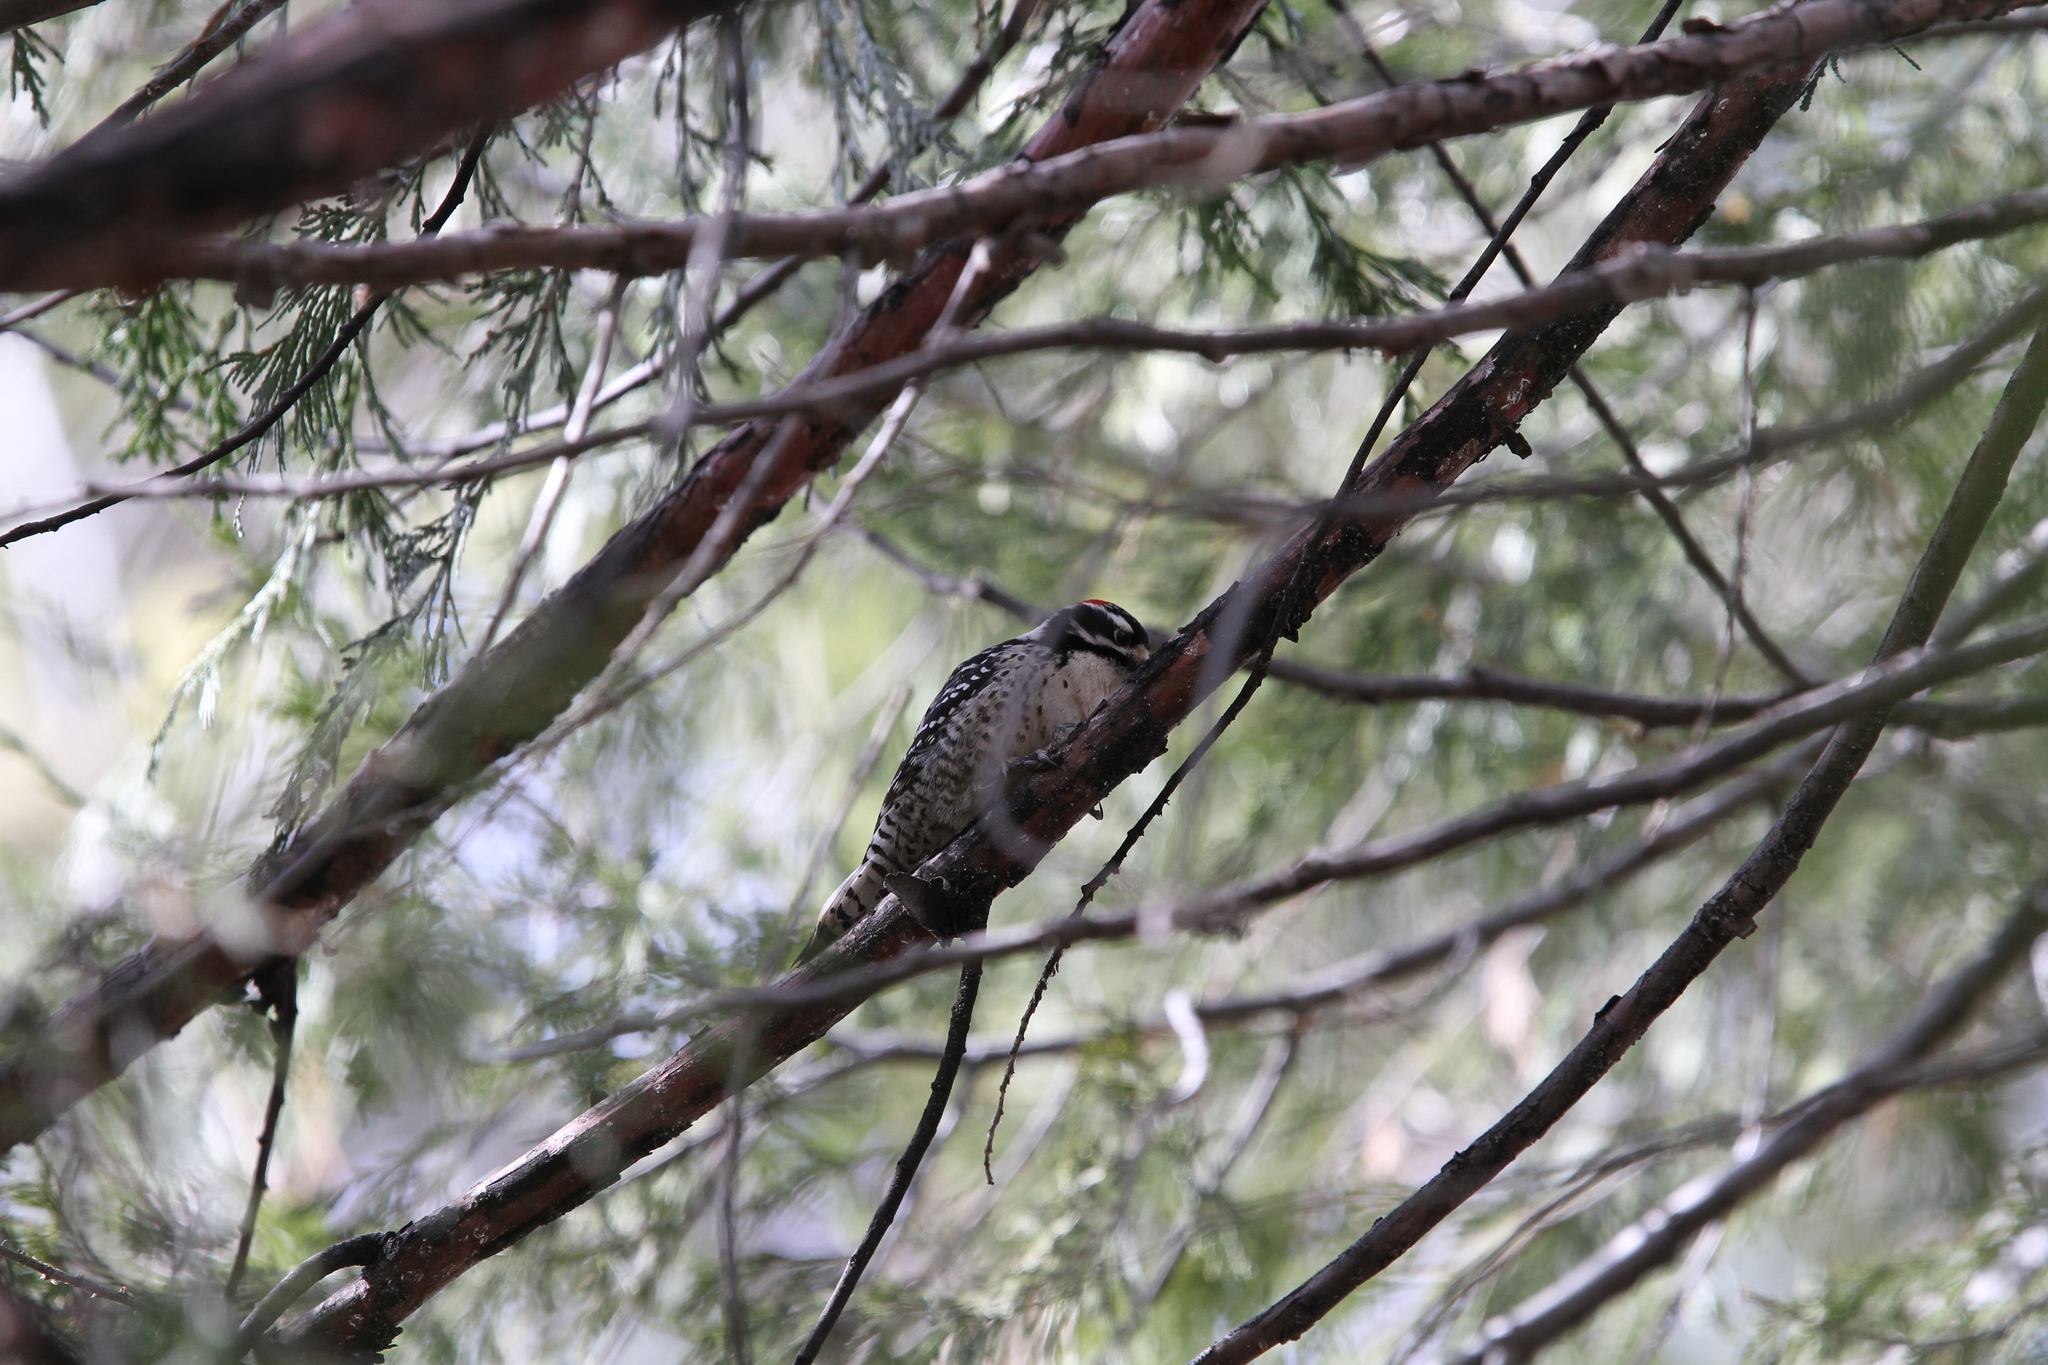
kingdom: Animalia
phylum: Chordata
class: Aves
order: Piciformes
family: Picidae
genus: Dryobates
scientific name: Dryobates nuttallii
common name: Nuttall's woodpecker
